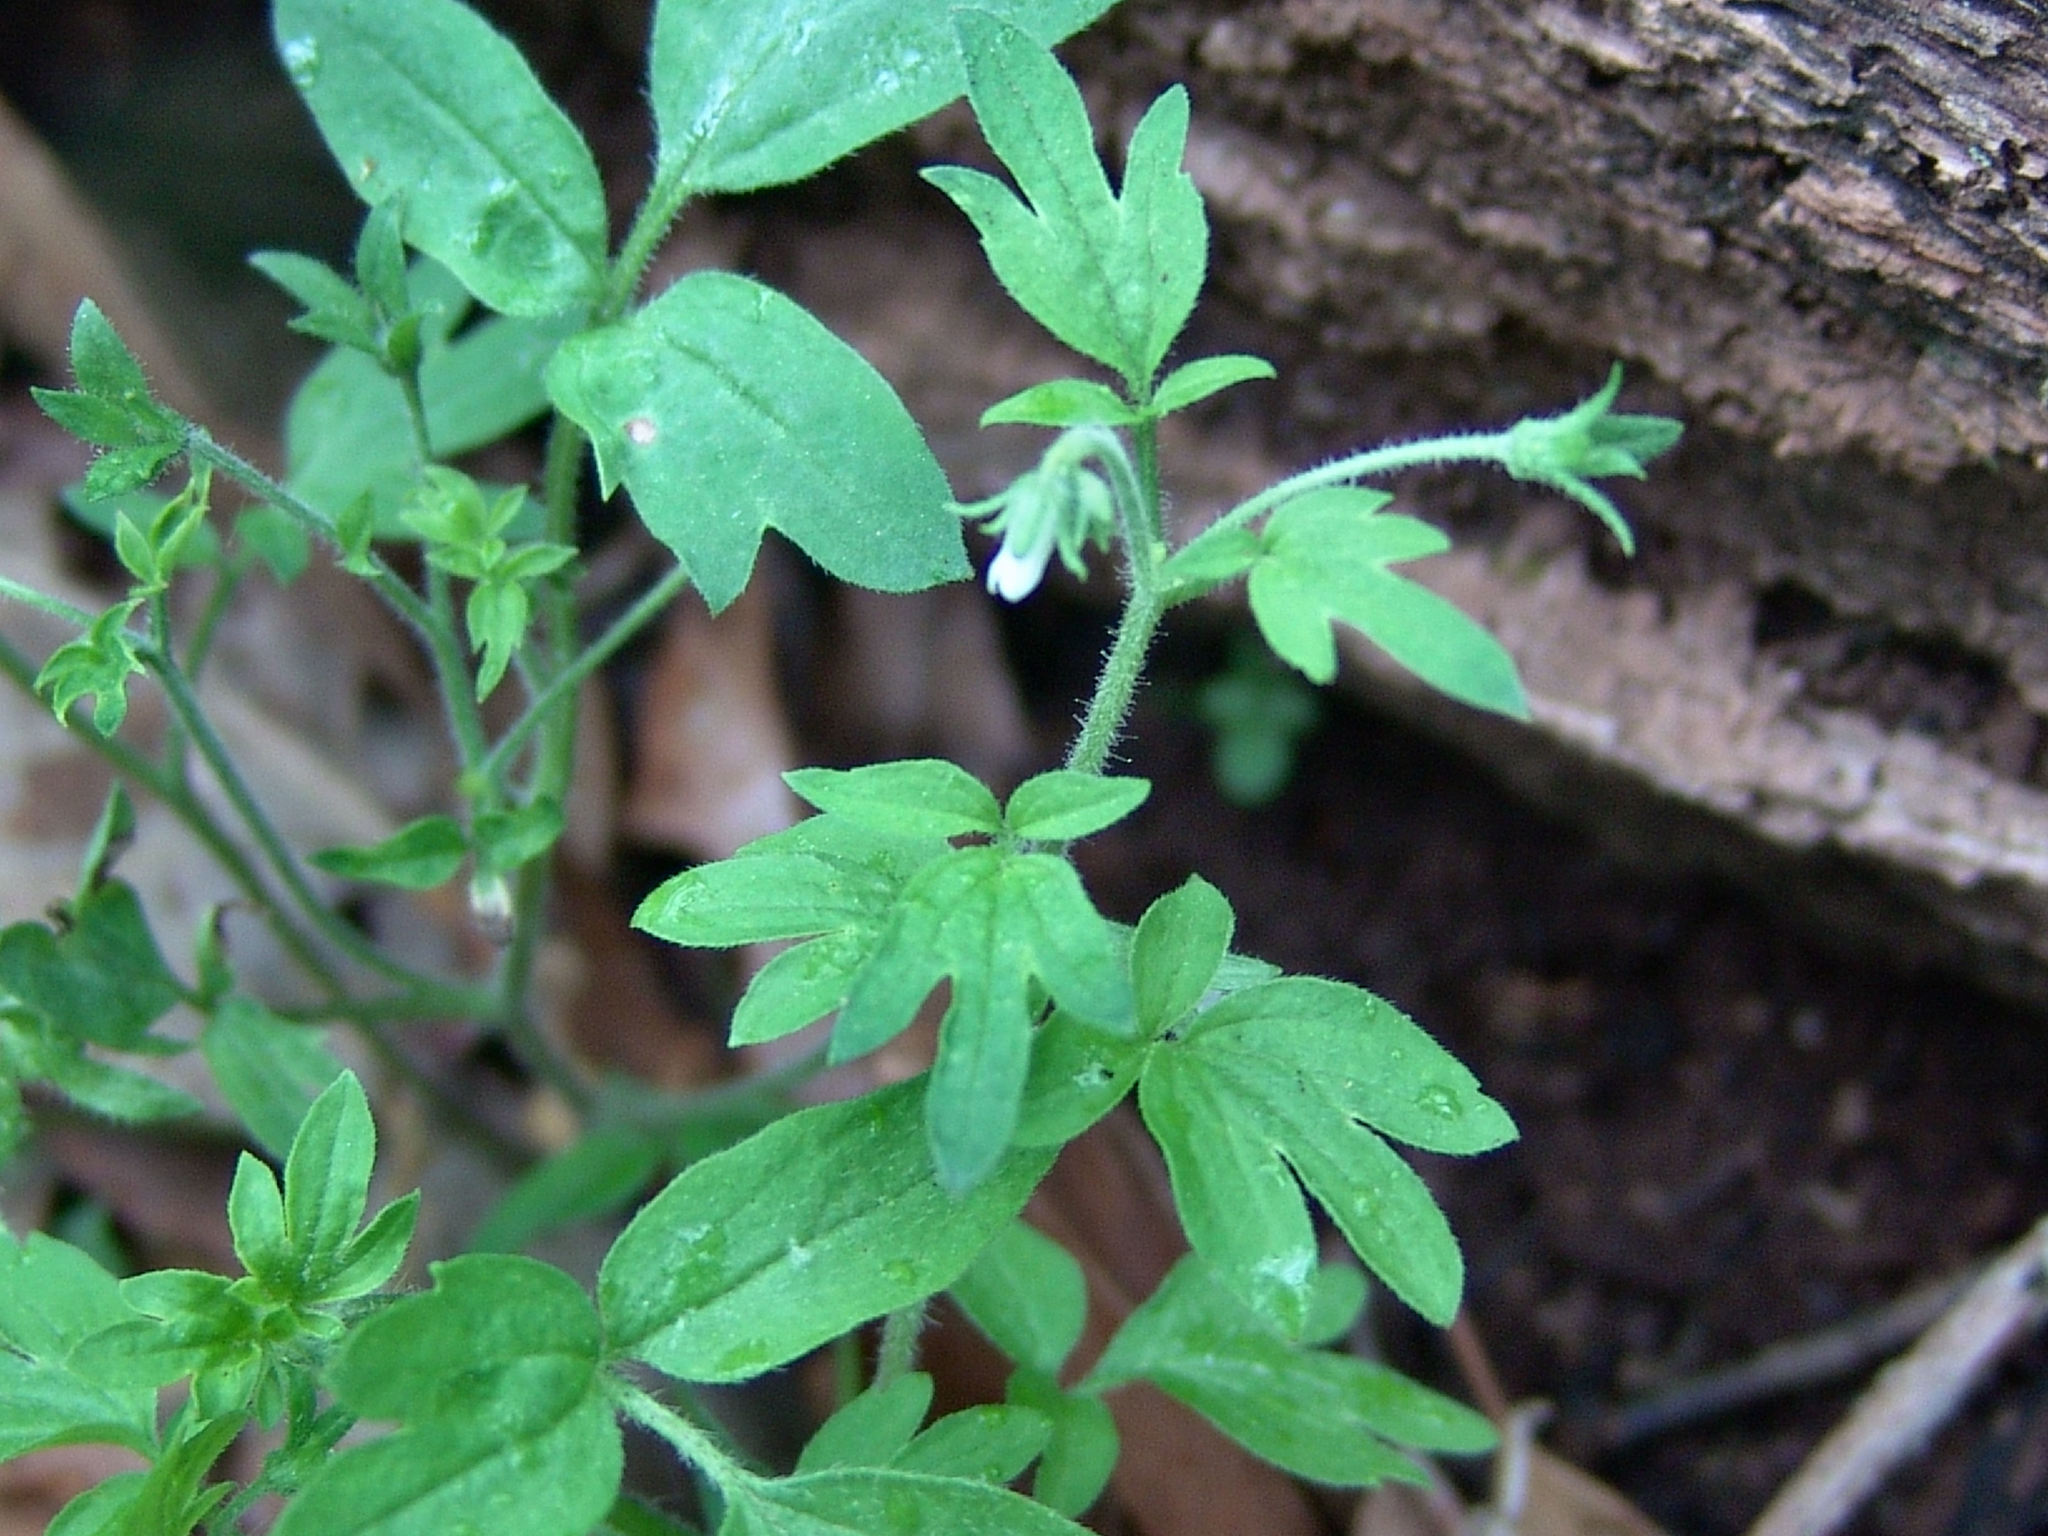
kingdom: Plantae
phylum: Tracheophyta
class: Magnoliopsida
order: Boraginales
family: Hydrophyllaceae
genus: Phacelia
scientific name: Phacelia ranunculacea
